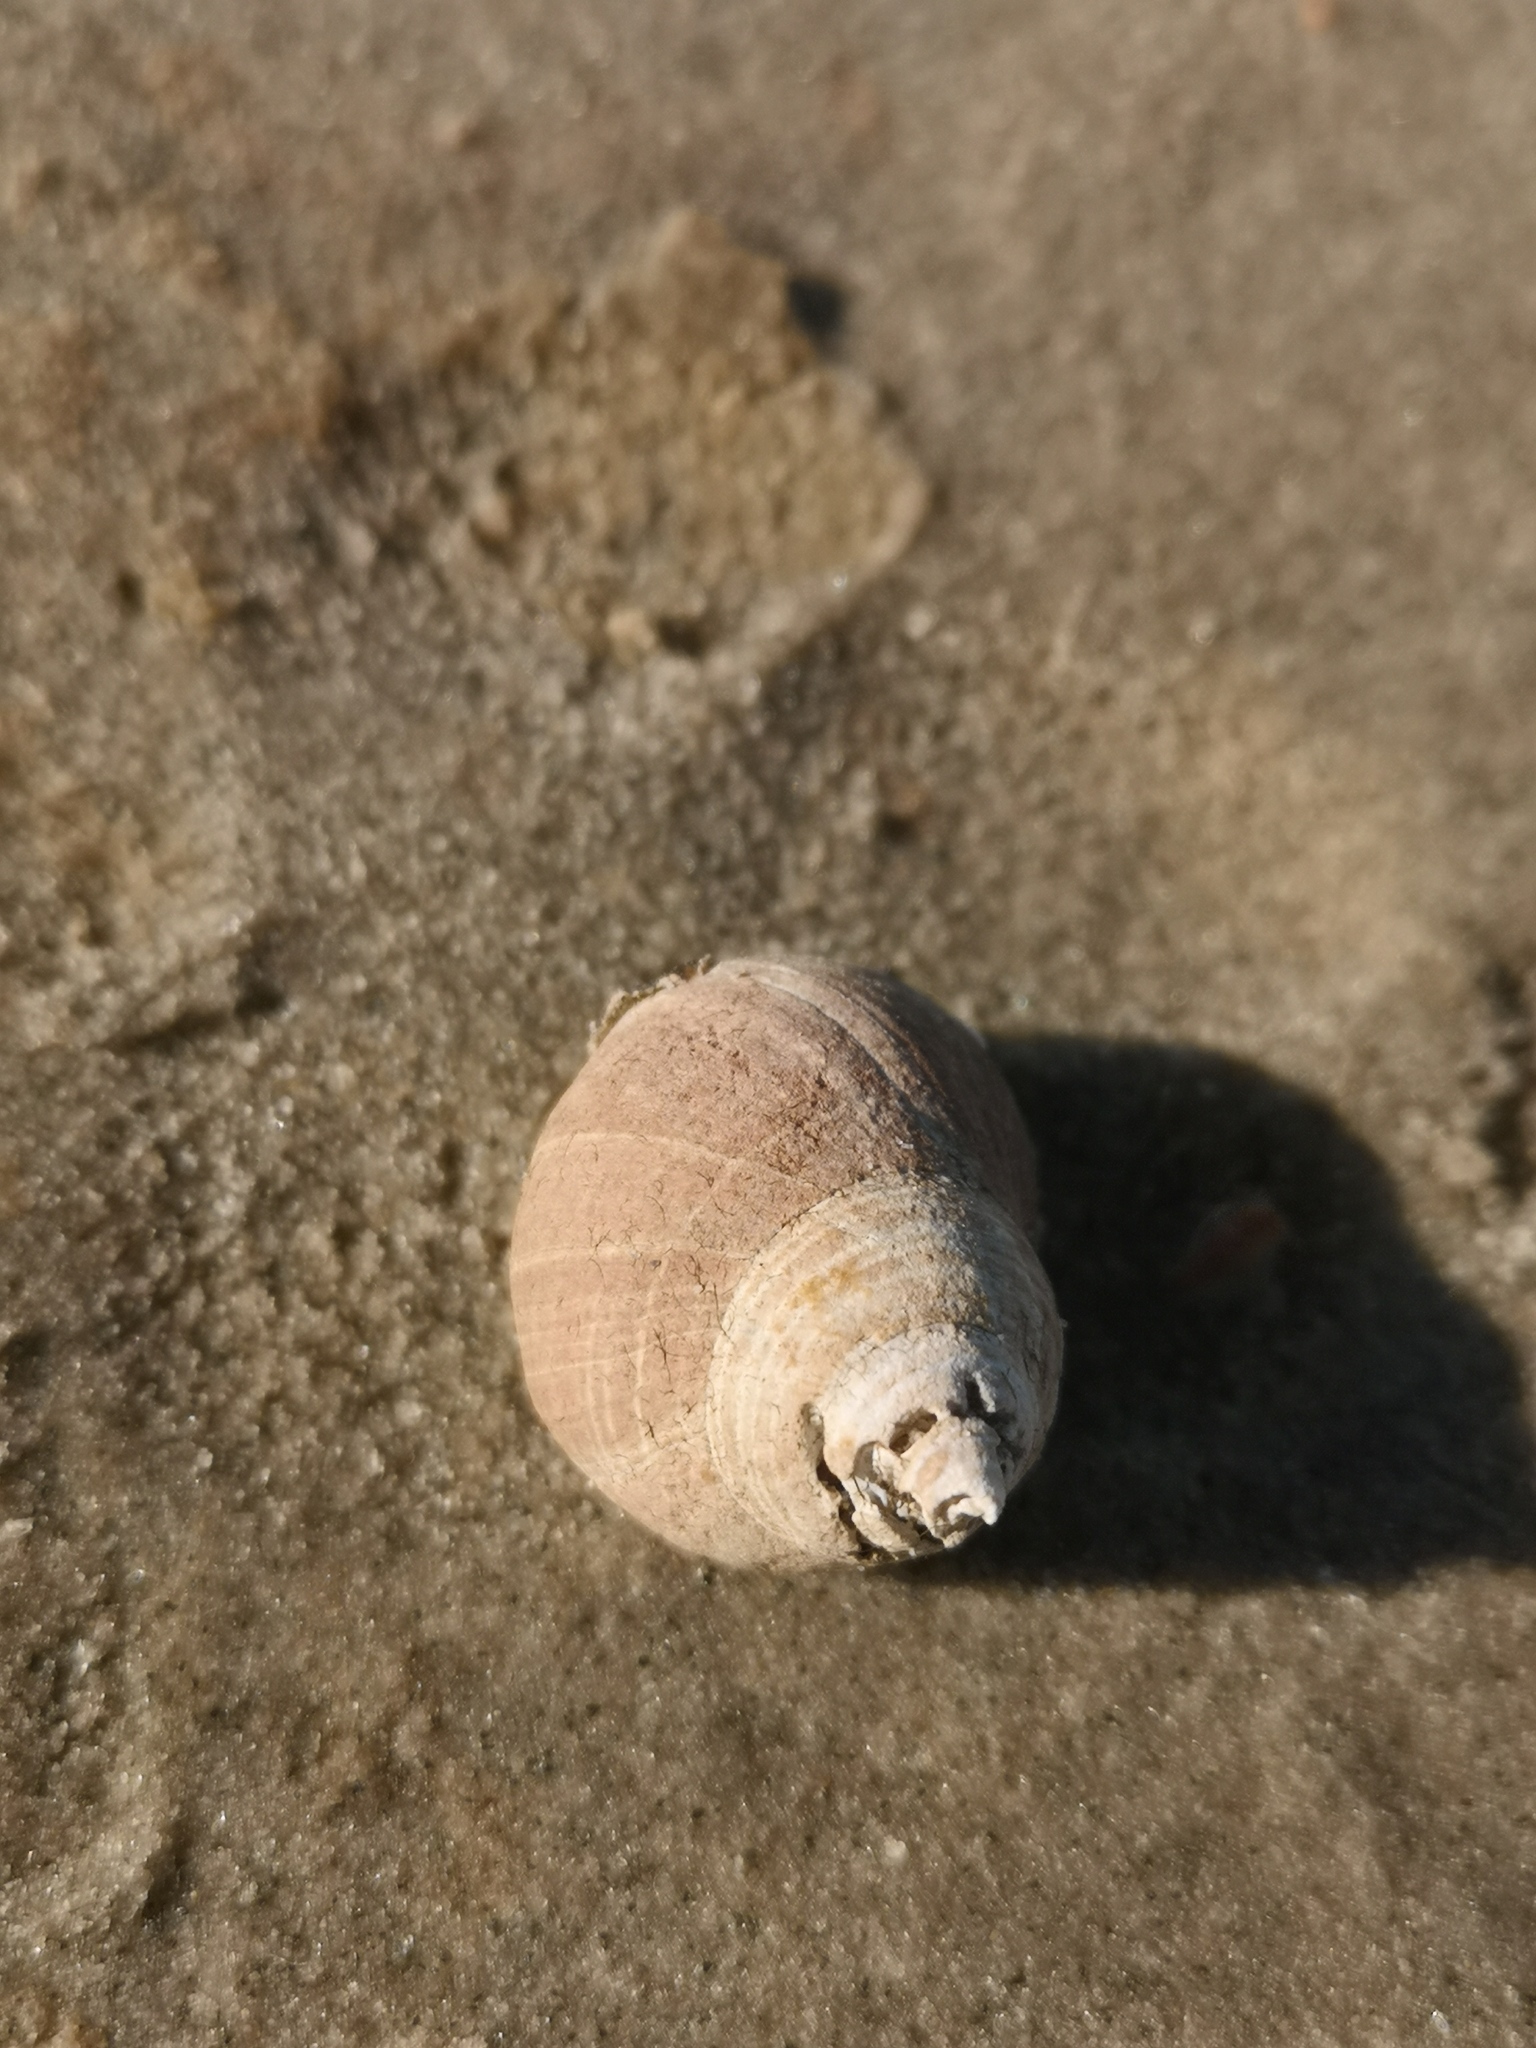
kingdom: Animalia
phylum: Mollusca
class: Gastropoda
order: Littorinimorpha
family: Littorinidae
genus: Littorina
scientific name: Littorina littorea
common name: Common periwinkle
